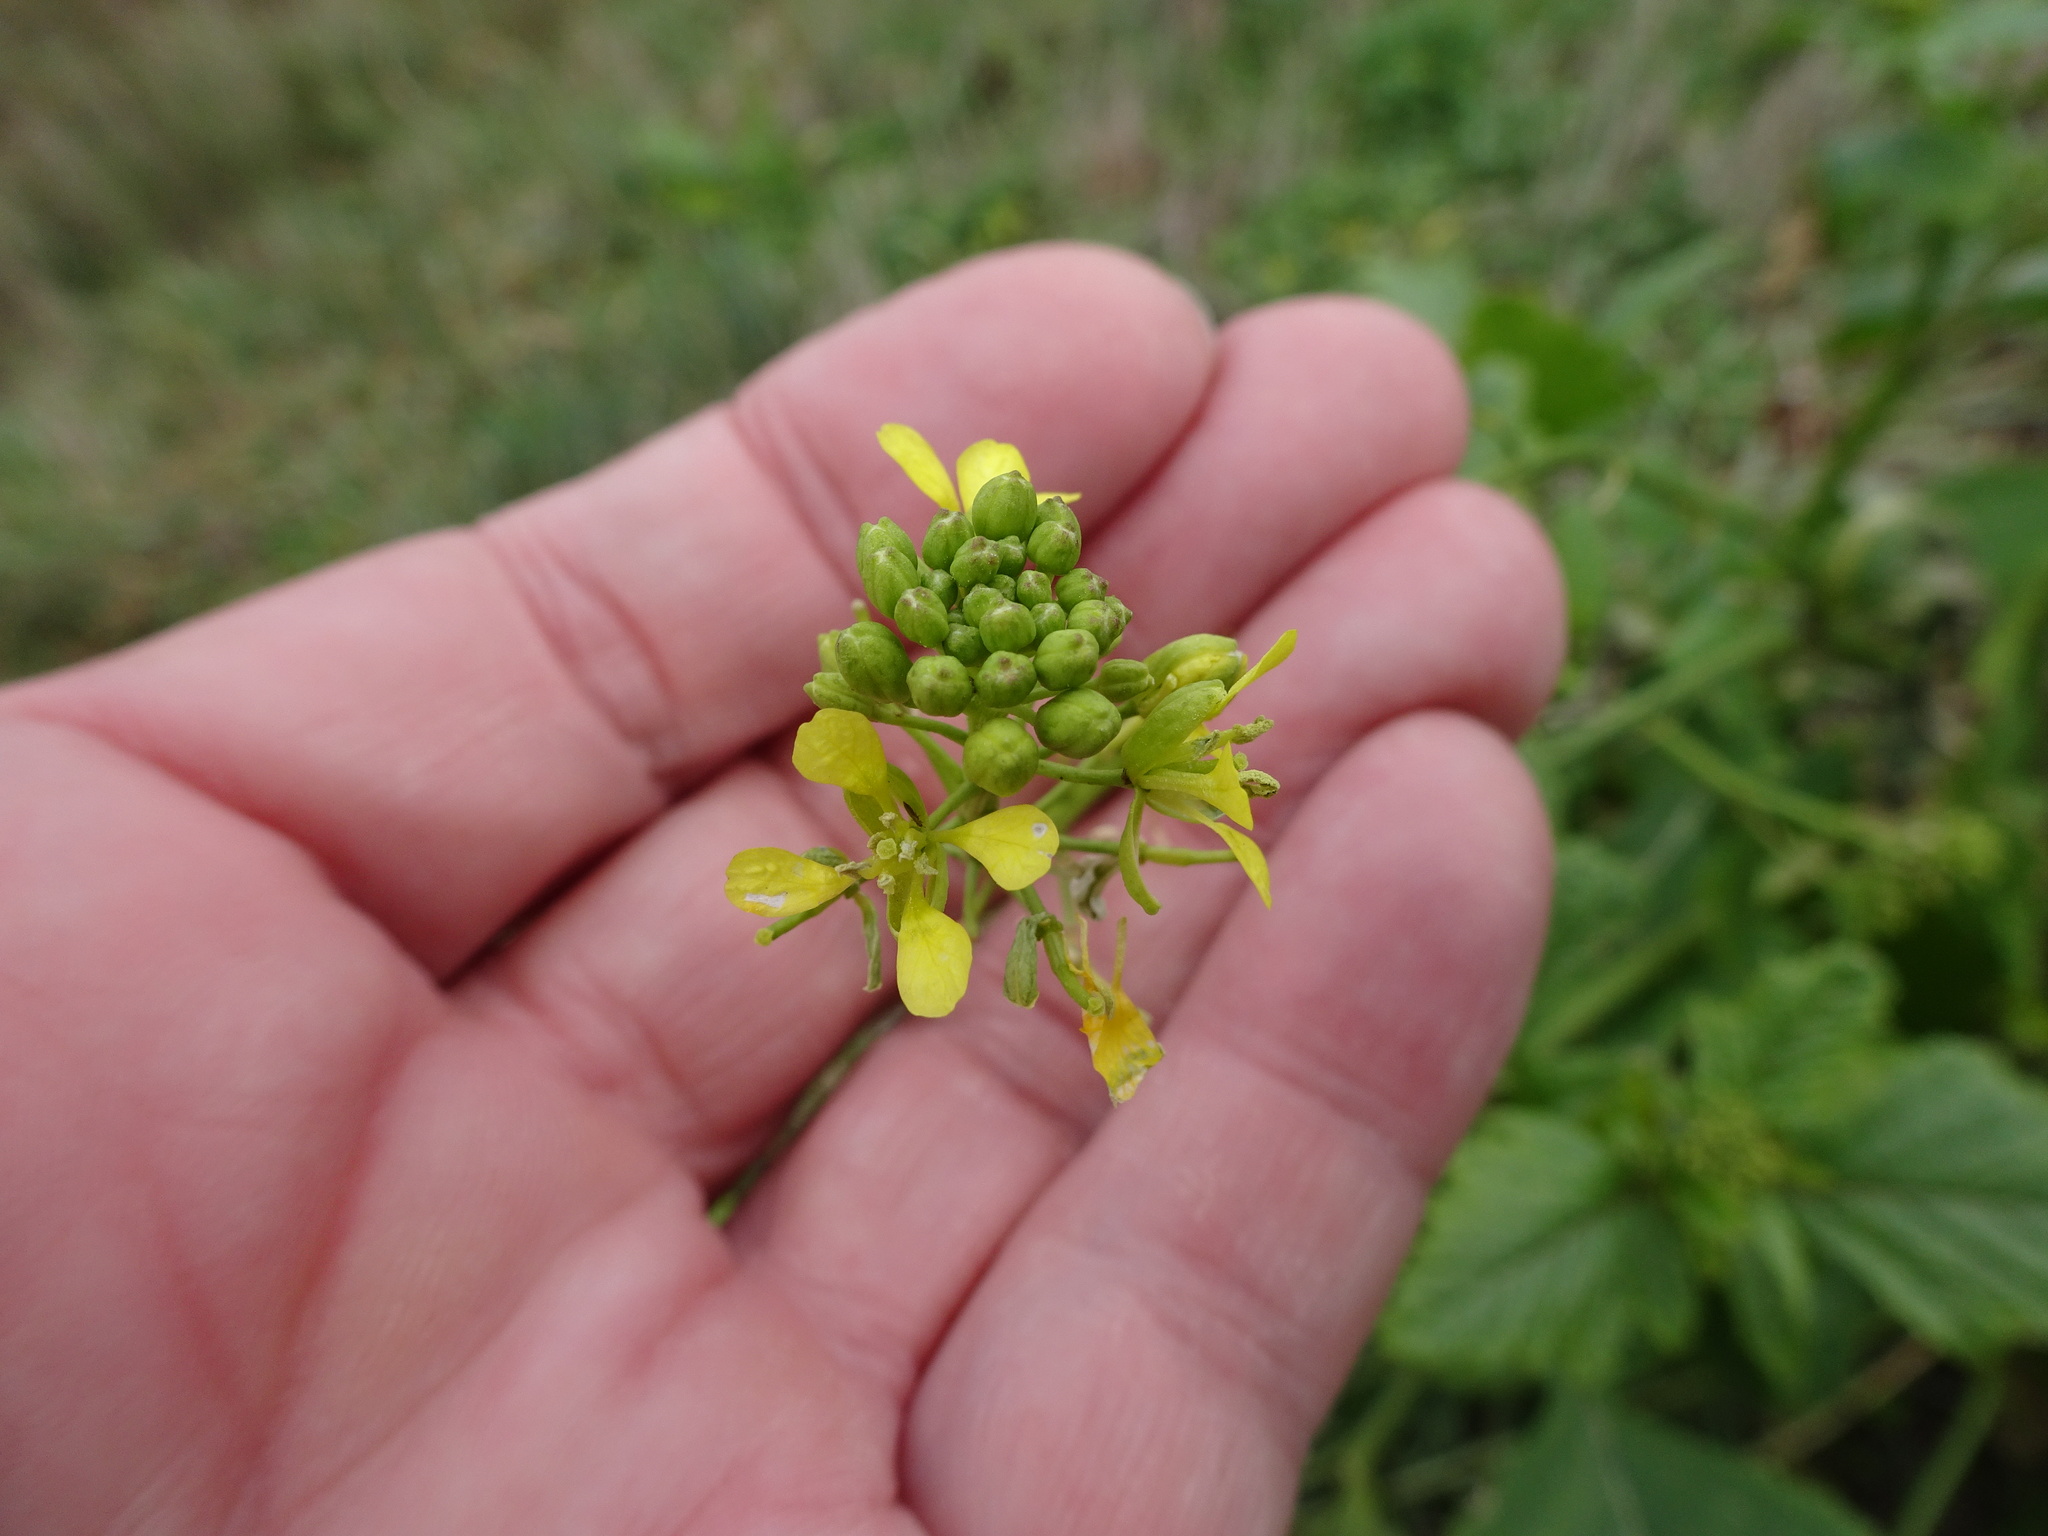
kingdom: Plantae
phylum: Tracheophyta
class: Magnoliopsida
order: Brassicales
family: Brassicaceae
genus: Sinapis
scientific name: Sinapis arvensis
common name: Charlock
